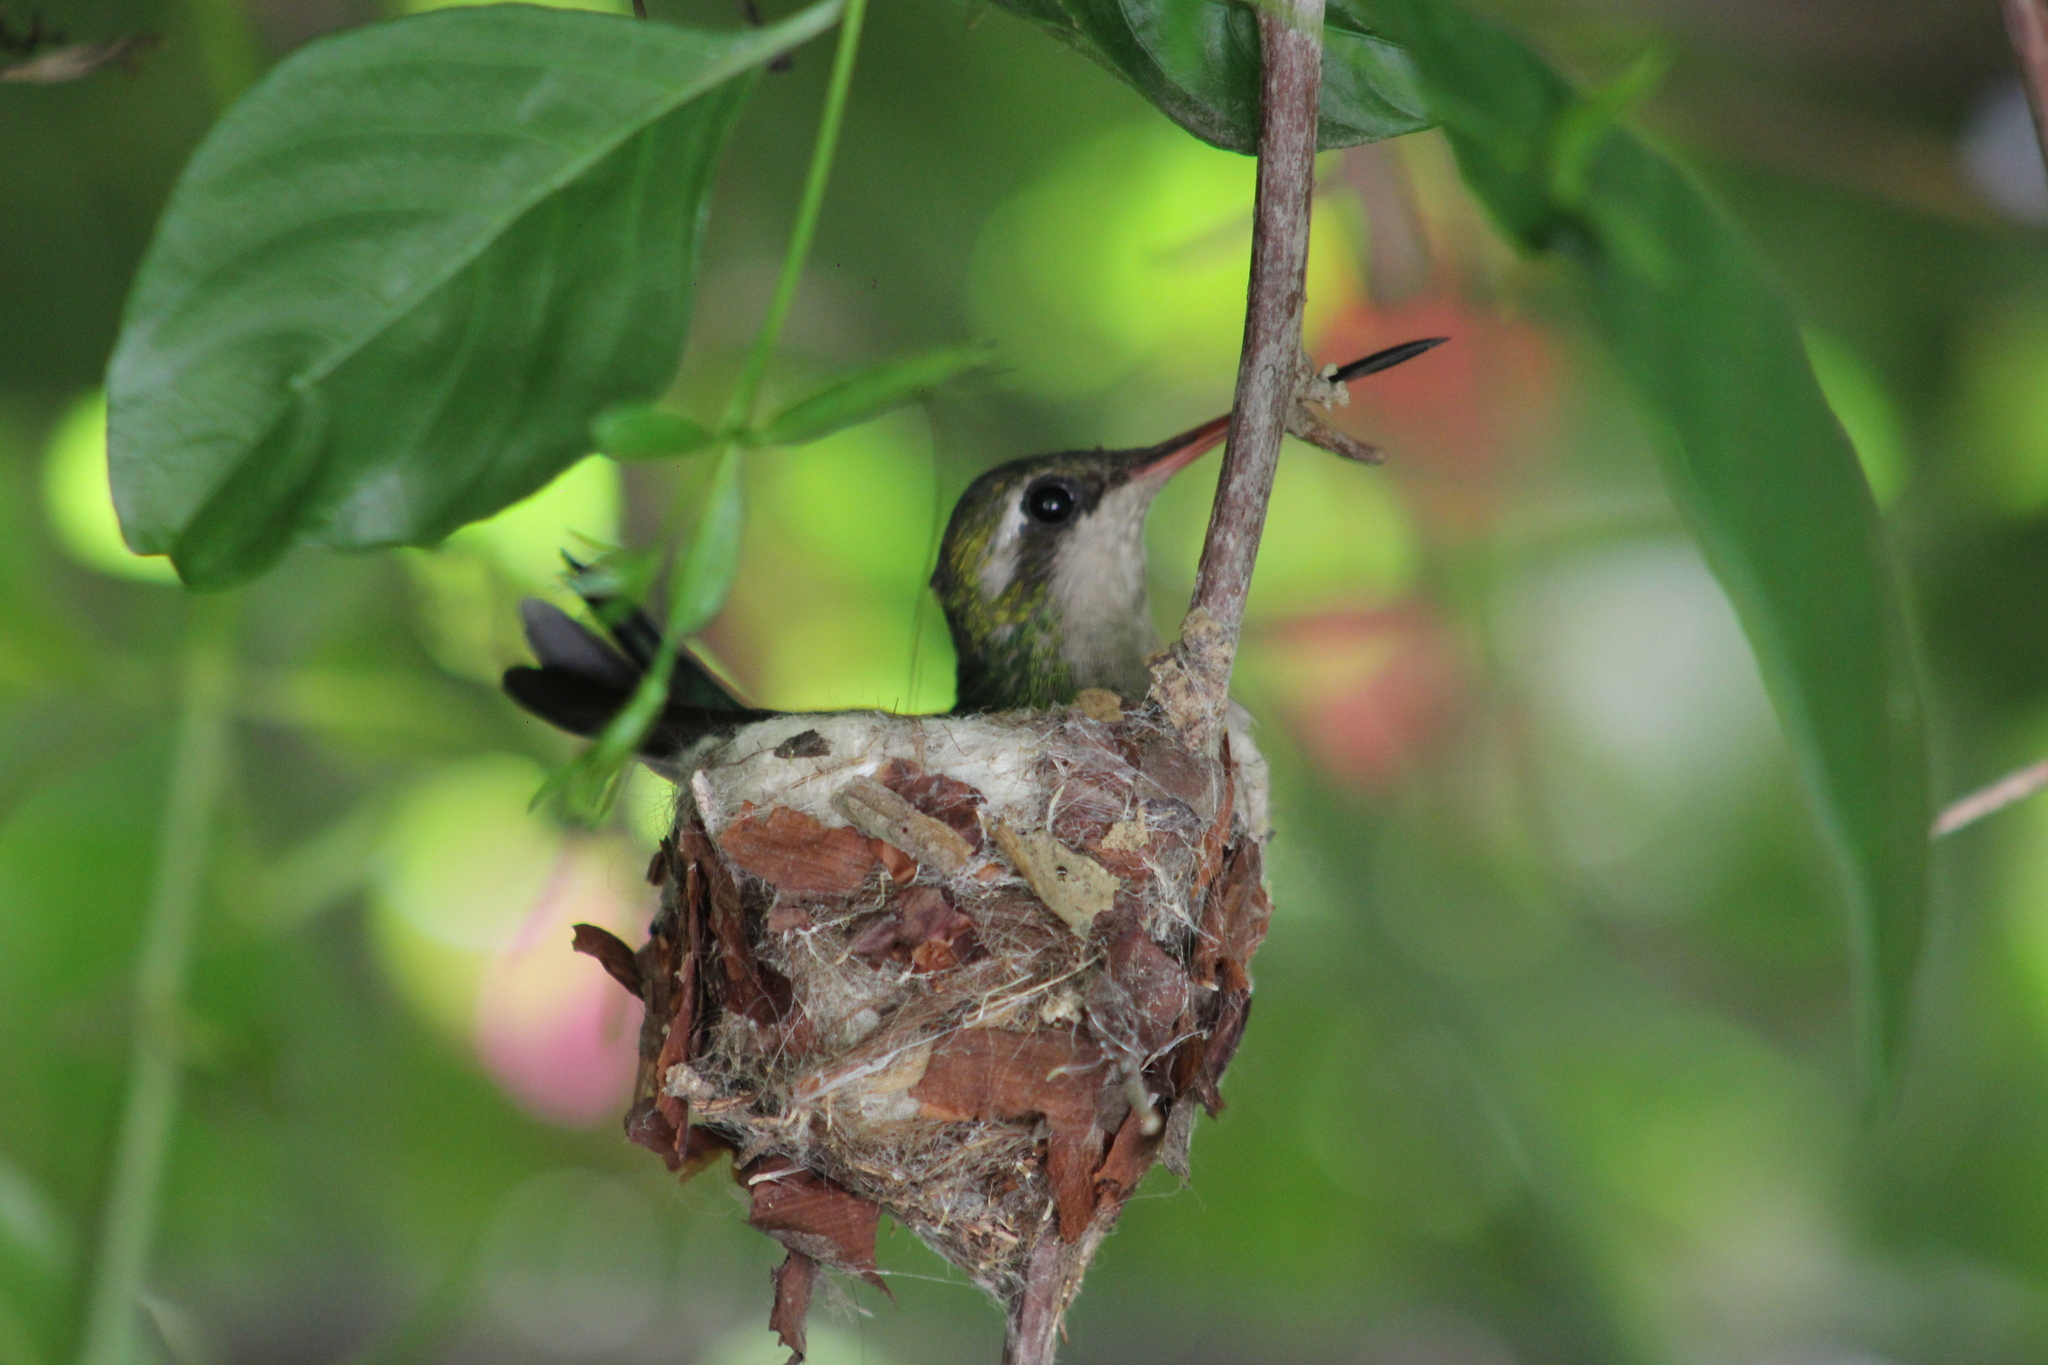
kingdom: Animalia
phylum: Chordata
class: Aves
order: Apodiformes
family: Trochilidae
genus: Chlorostilbon
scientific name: Chlorostilbon lucidus
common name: Glittering-bellied emerald
